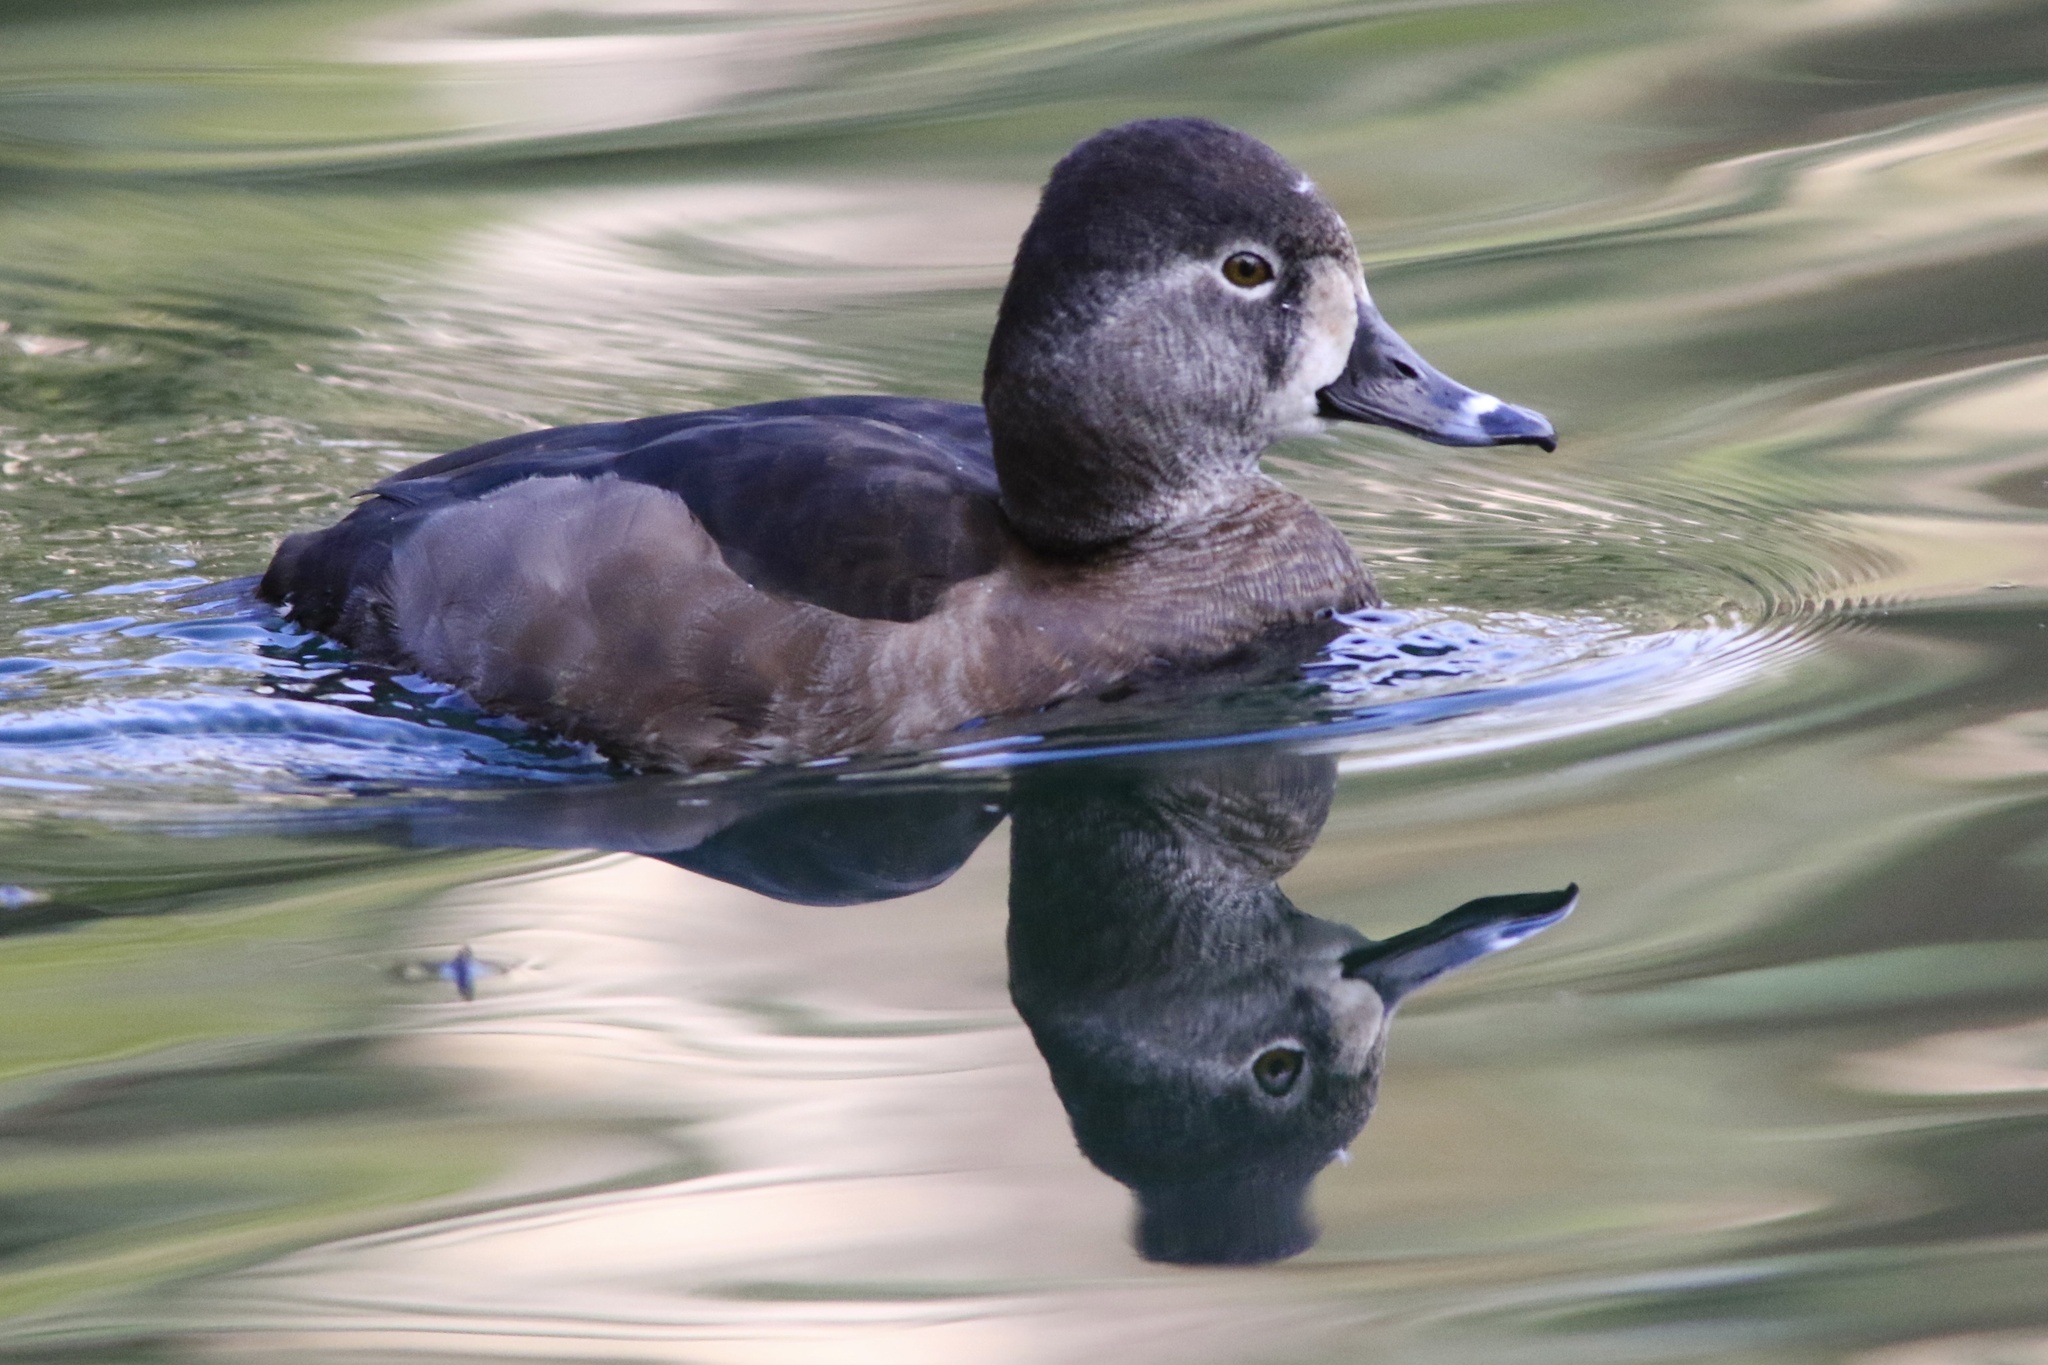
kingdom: Animalia
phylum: Chordata
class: Aves
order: Anseriformes
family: Anatidae
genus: Aythya
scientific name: Aythya collaris
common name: Ring-necked duck
